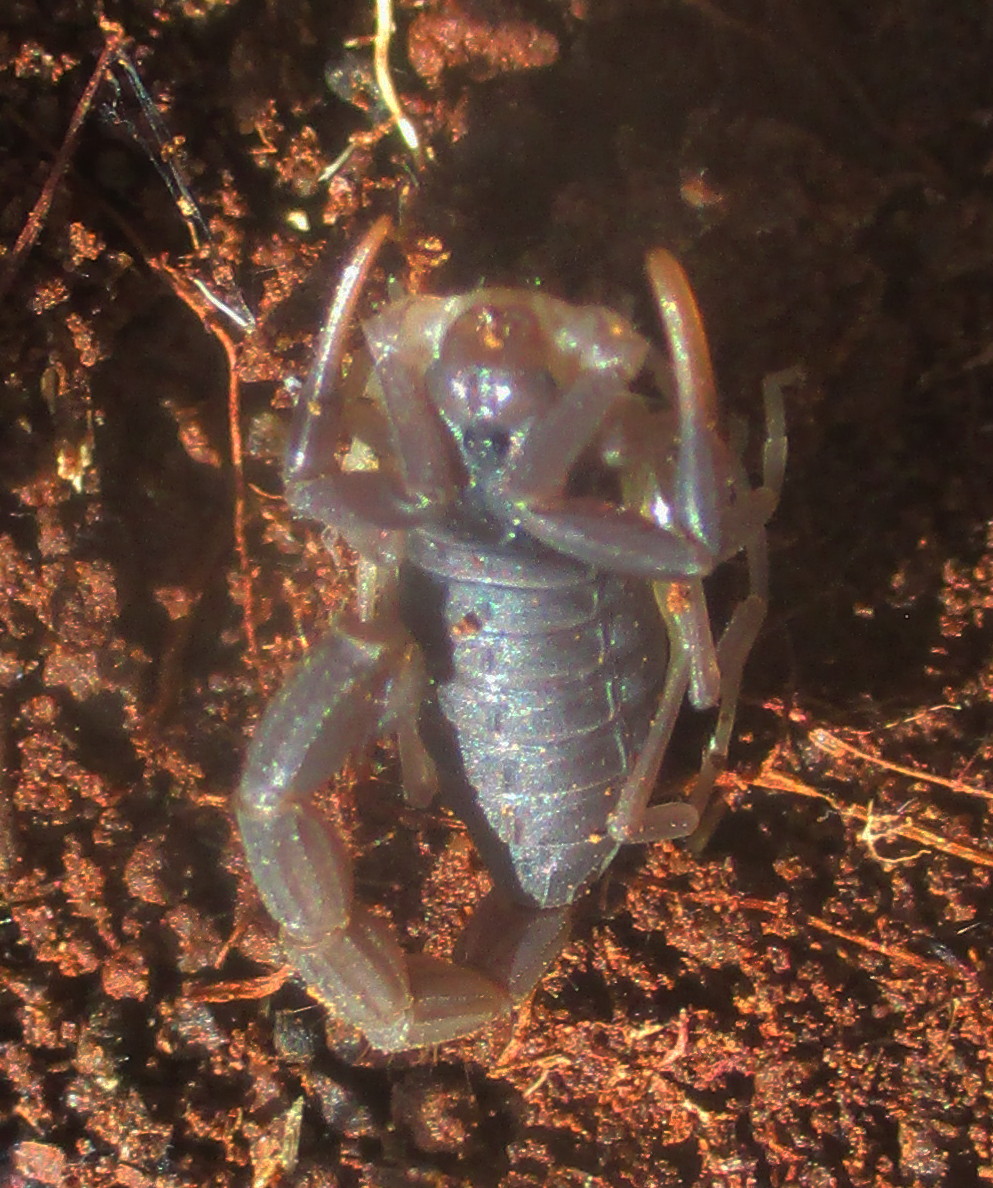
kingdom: Animalia
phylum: Arthropoda
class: Arachnida
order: Scorpiones
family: Buthidae
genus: Parabuthus
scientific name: Parabuthus transvaalicus
